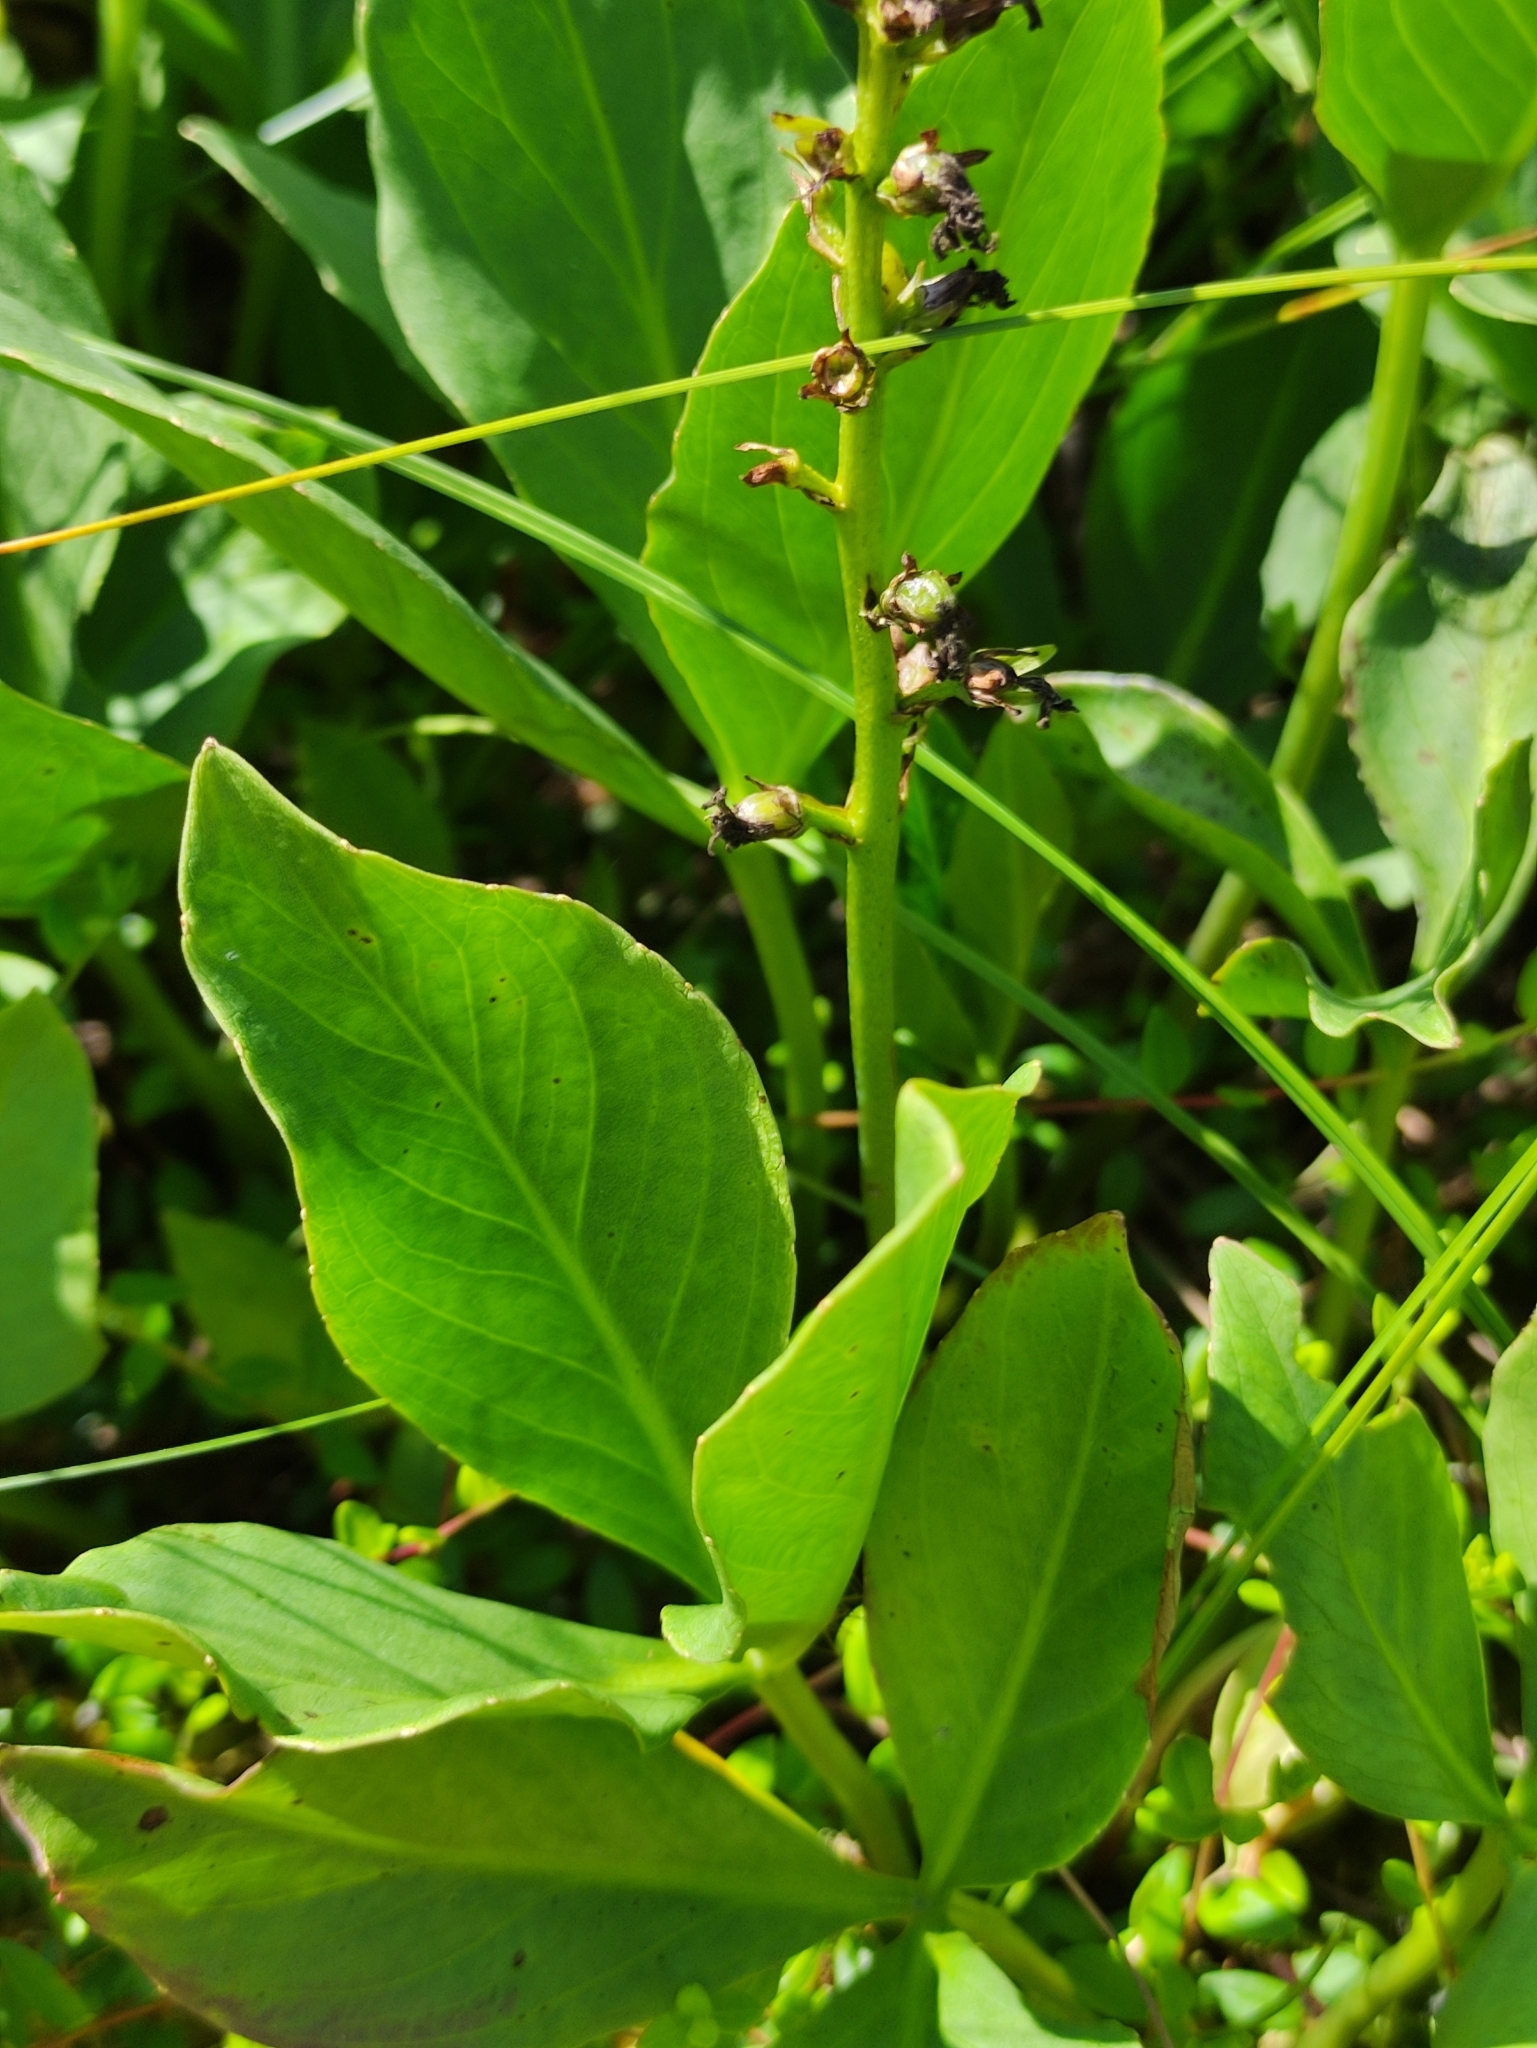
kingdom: Plantae
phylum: Tracheophyta
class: Magnoliopsida
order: Asterales
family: Menyanthaceae
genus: Menyanthes
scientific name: Menyanthes trifoliata
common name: Bogbean
